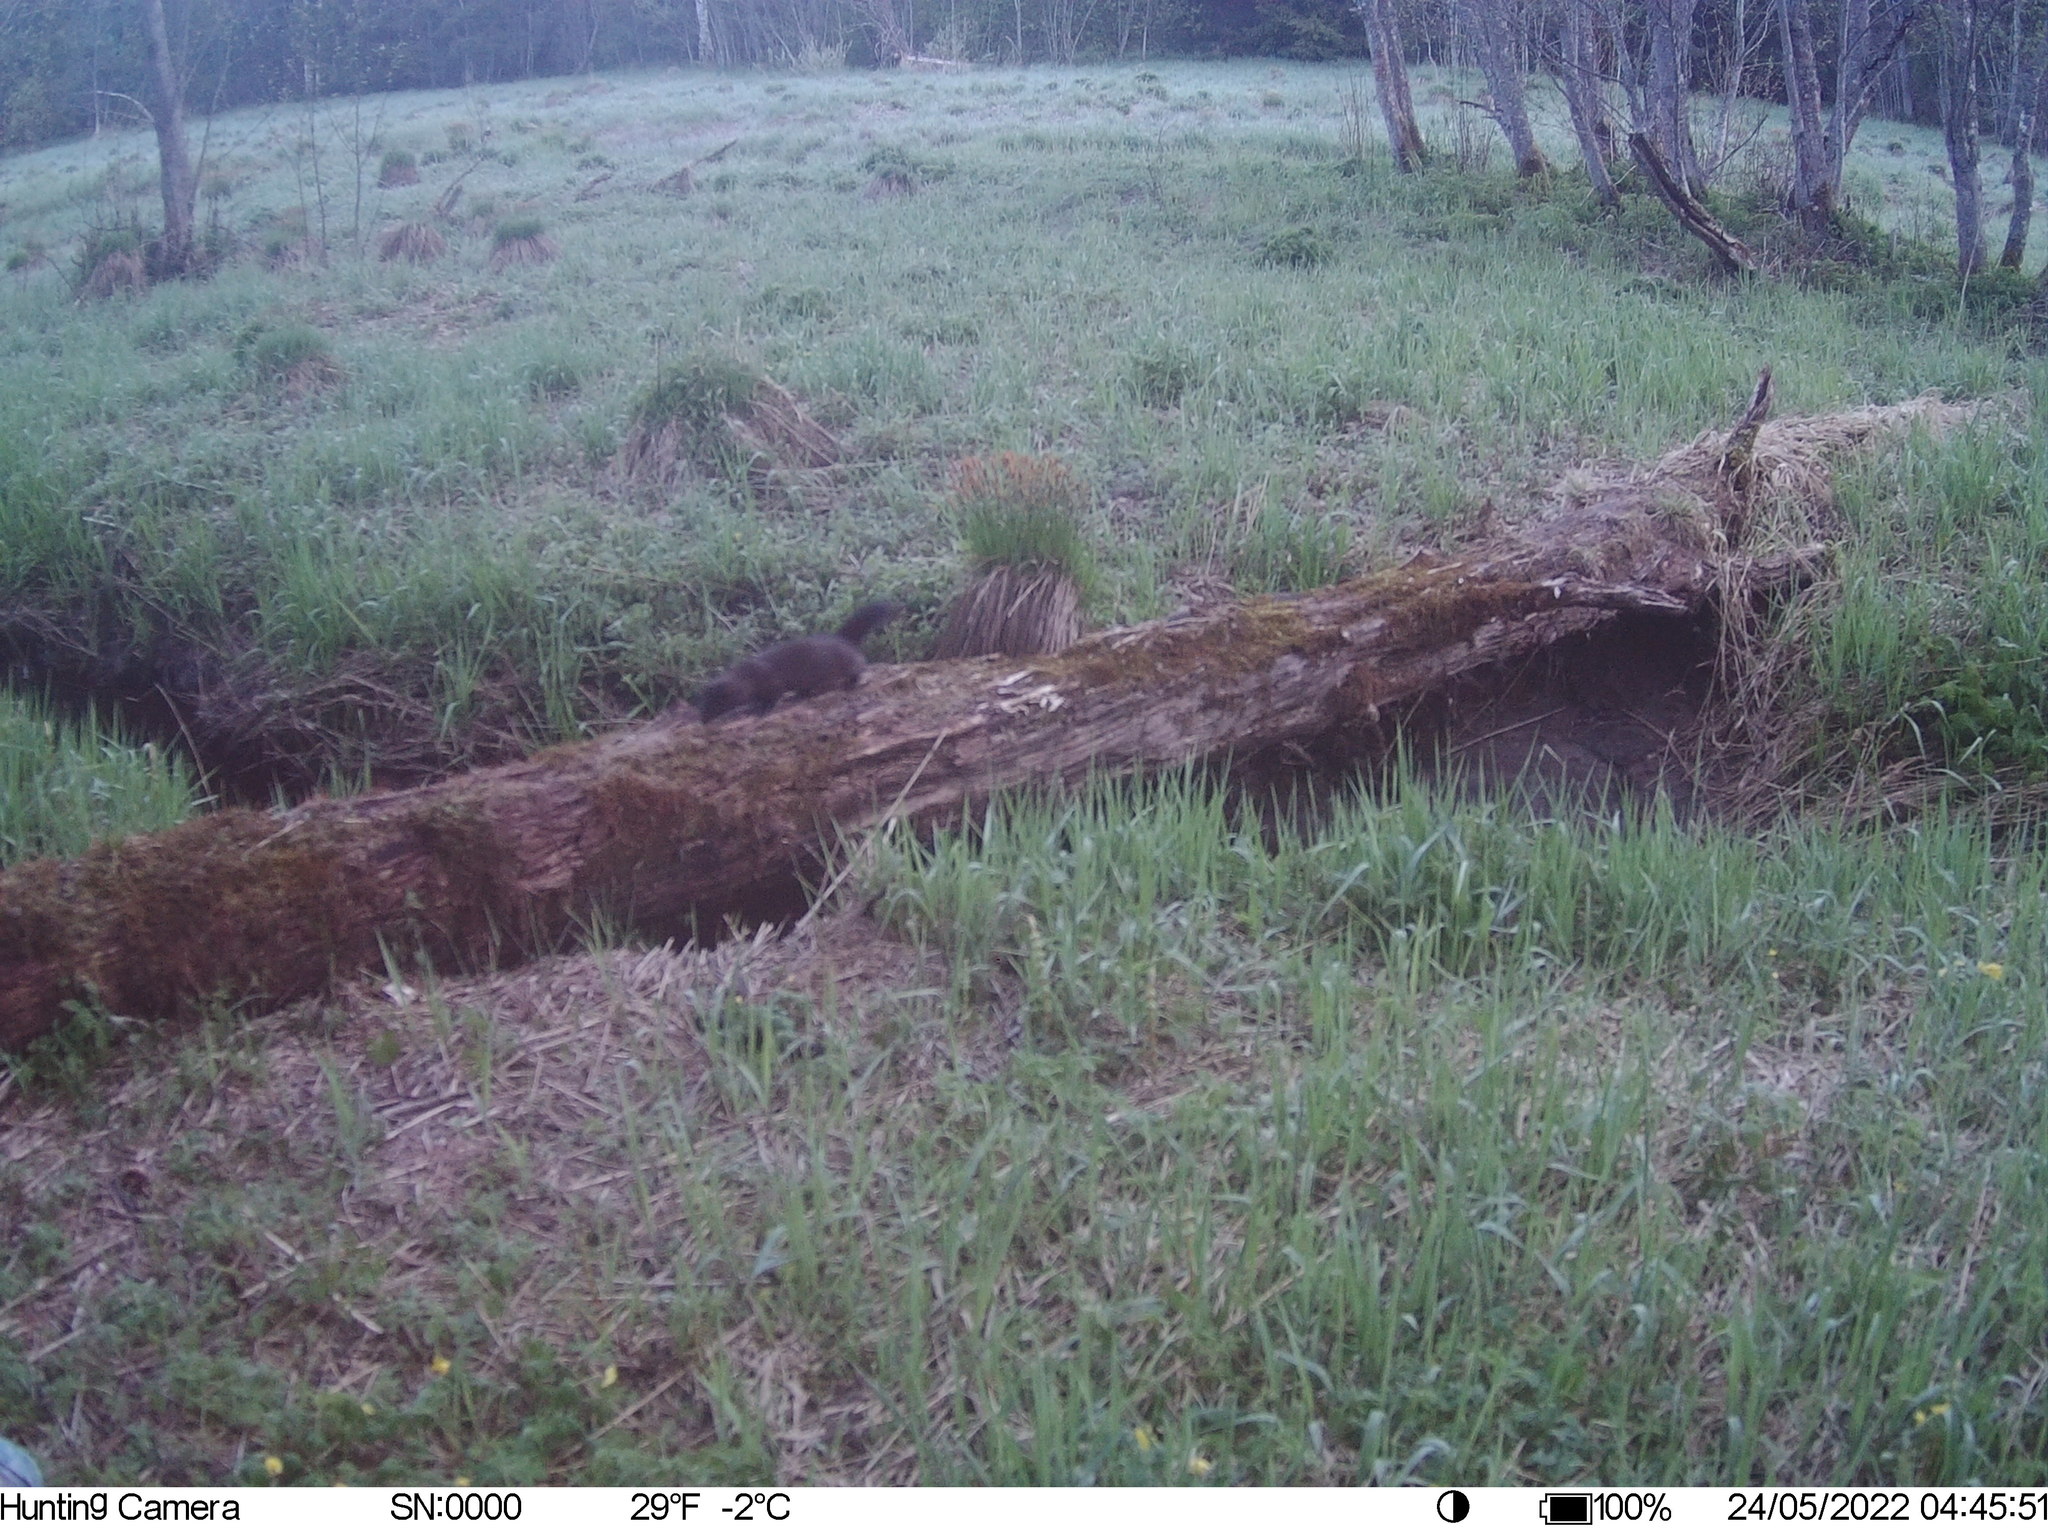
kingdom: Animalia
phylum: Chordata
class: Mammalia
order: Carnivora
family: Mustelidae
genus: Mustela
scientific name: Mustela
